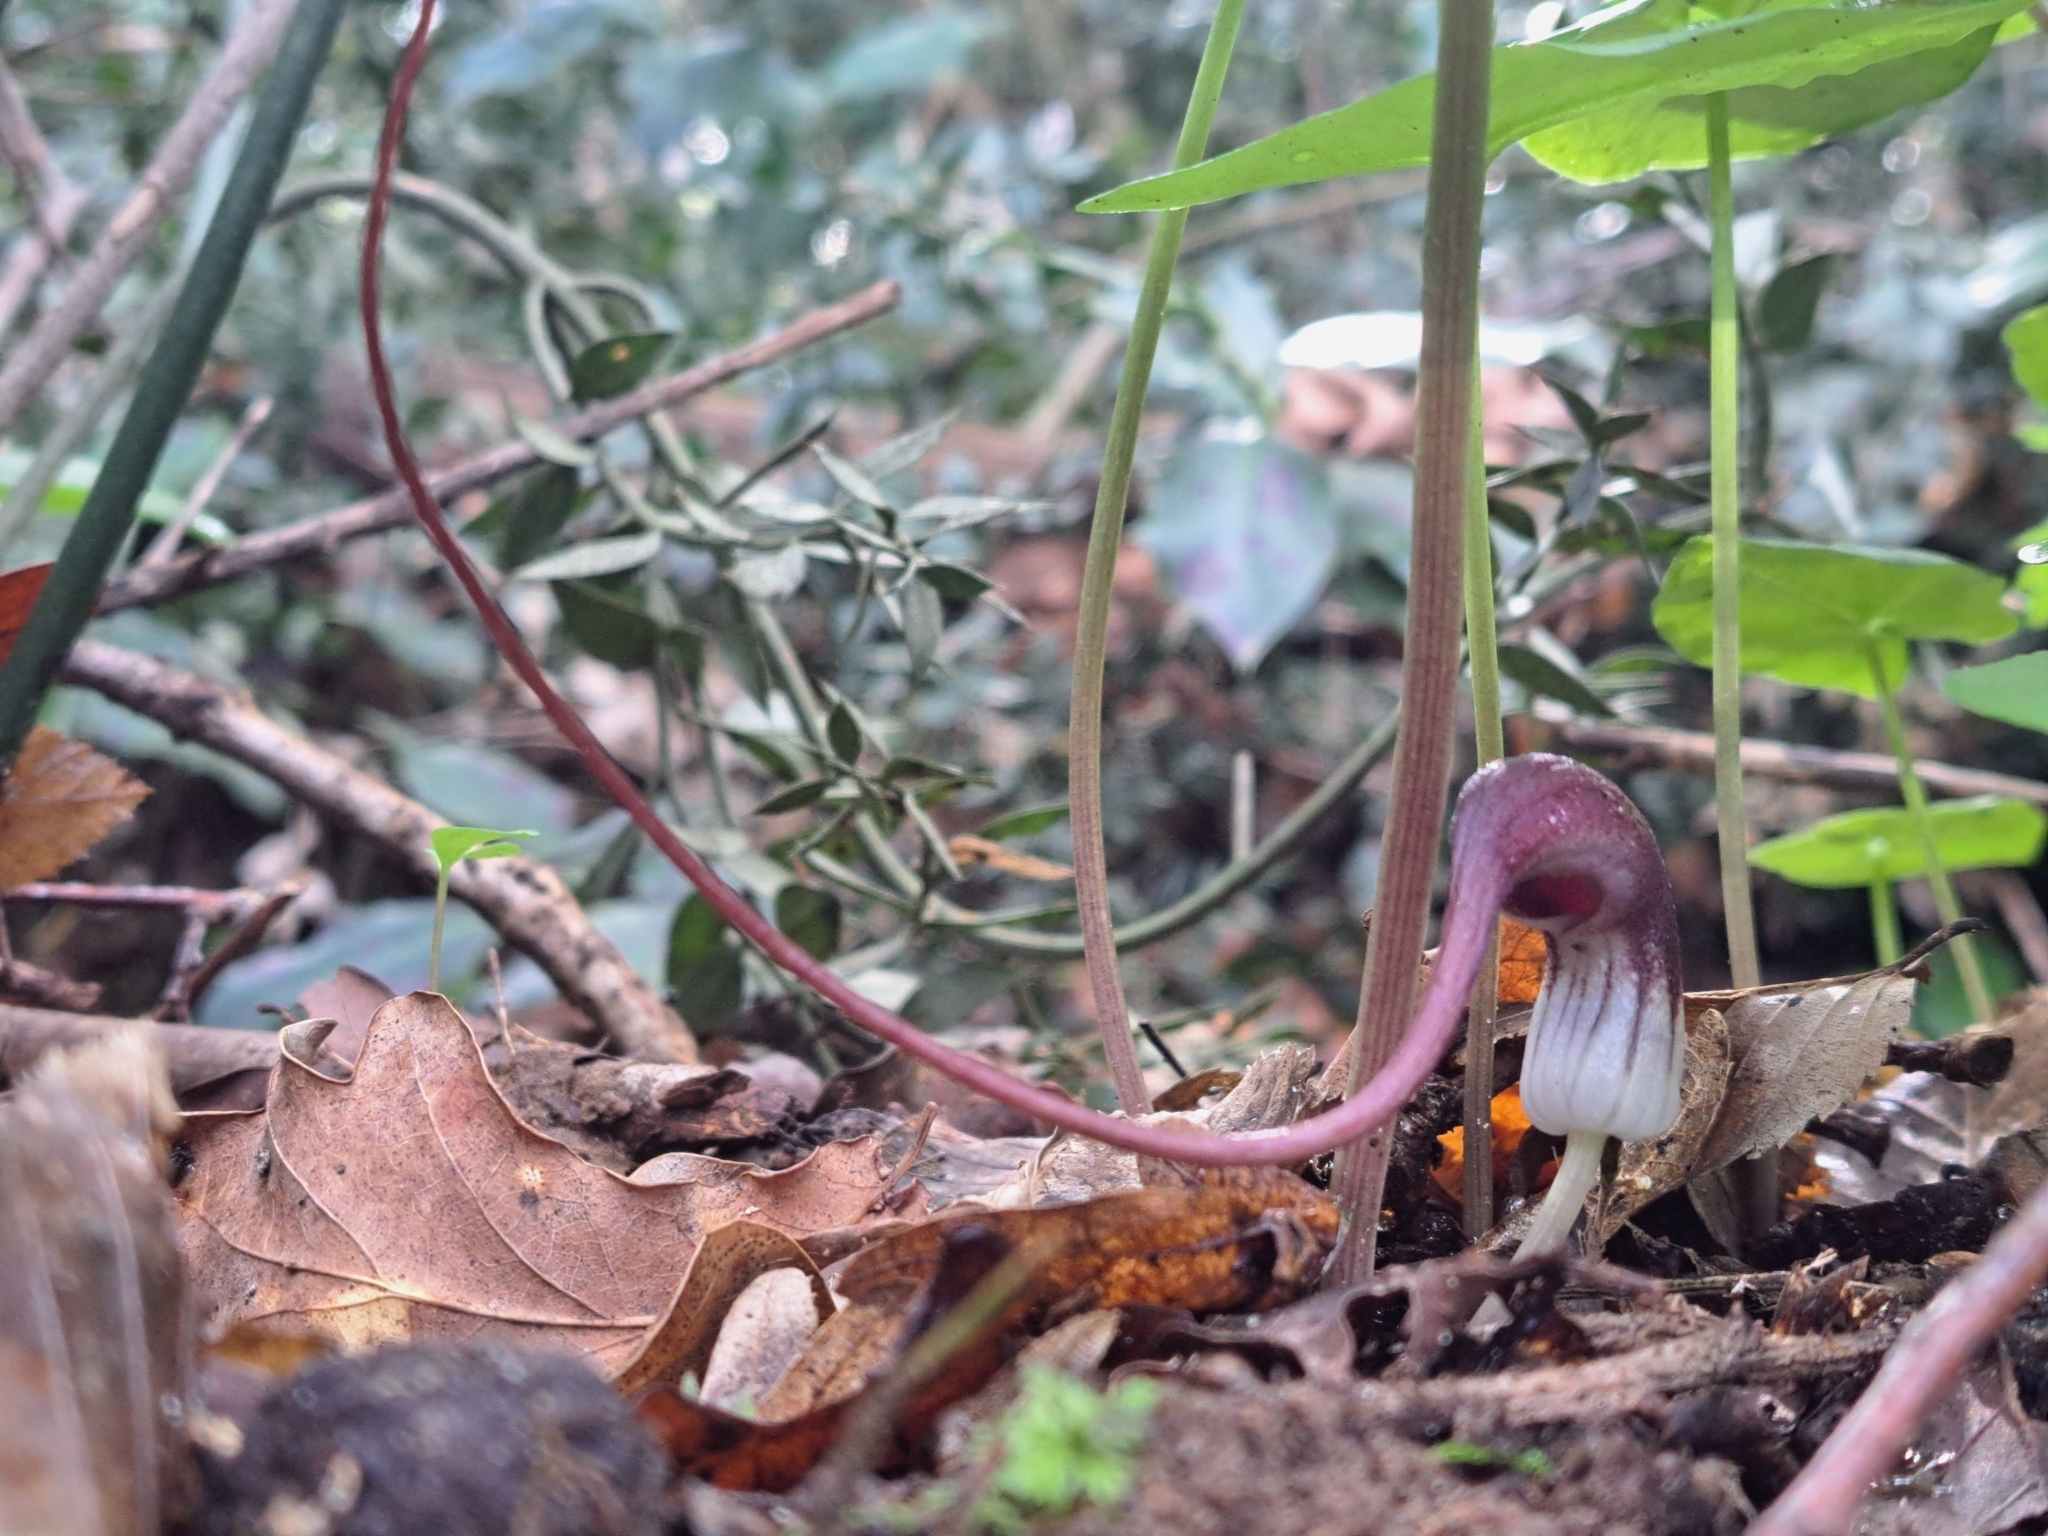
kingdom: Plantae
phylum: Tracheophyta
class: Liliopsida
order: Alismatales
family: Araceae
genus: Arisarum
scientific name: Arisarum proboscideum
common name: Mousetailplant
